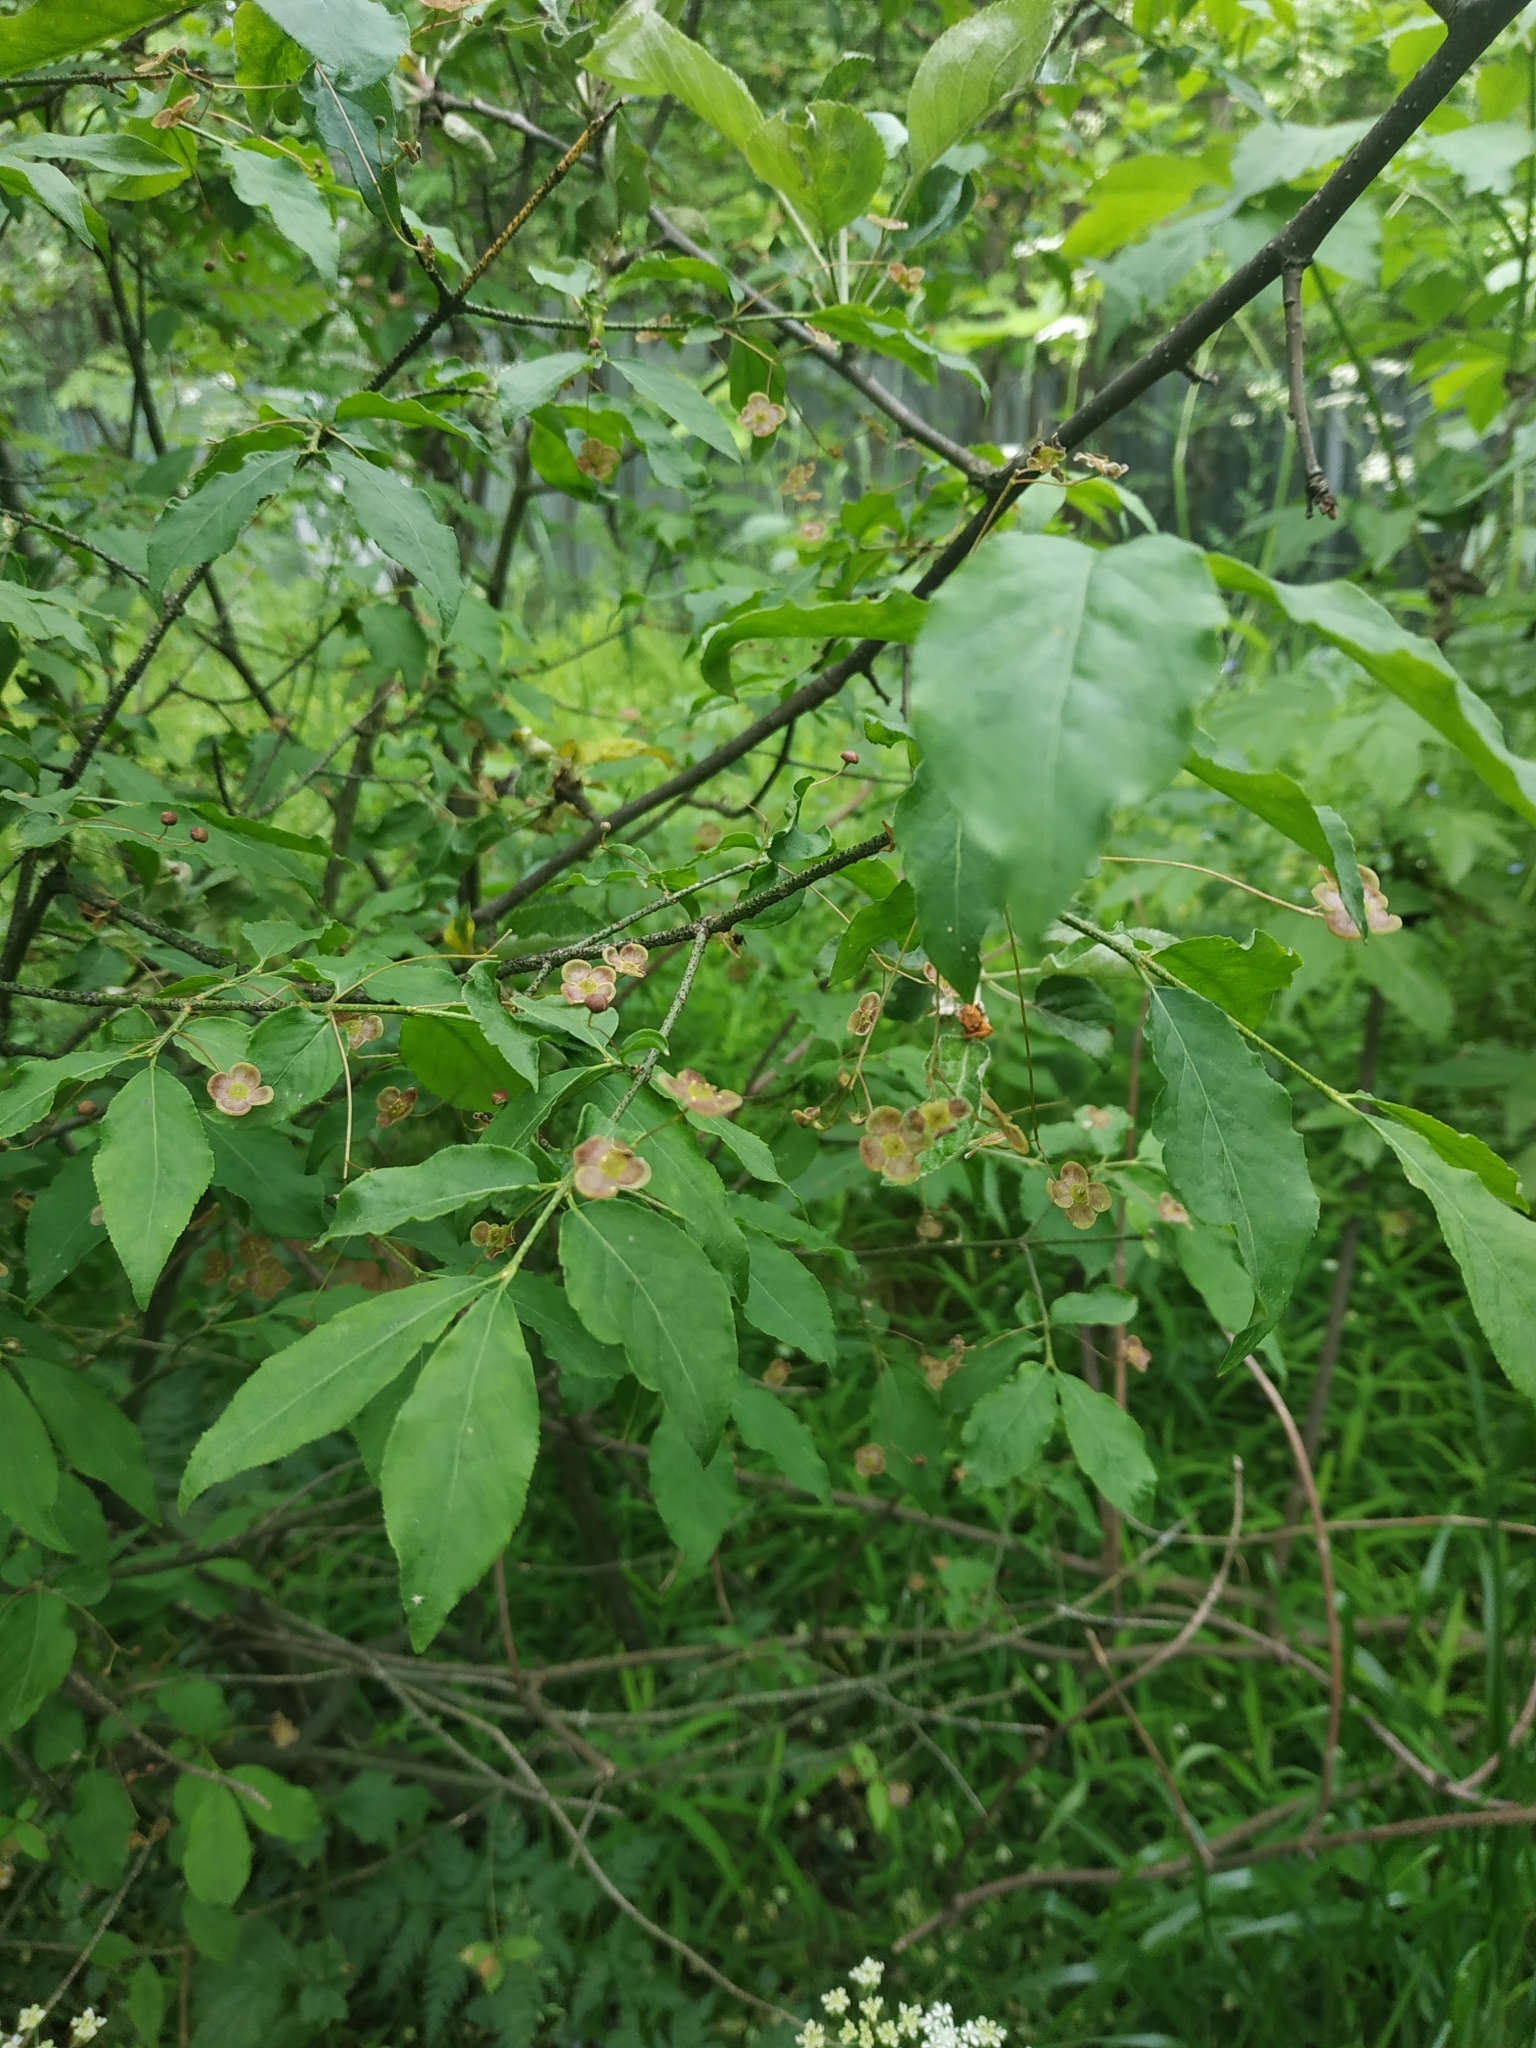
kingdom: Plantae
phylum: Tracheophyta
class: Magnoliopsida
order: Celastrales
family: Celastraceae
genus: Euonymus
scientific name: Euonymus verrucosus
